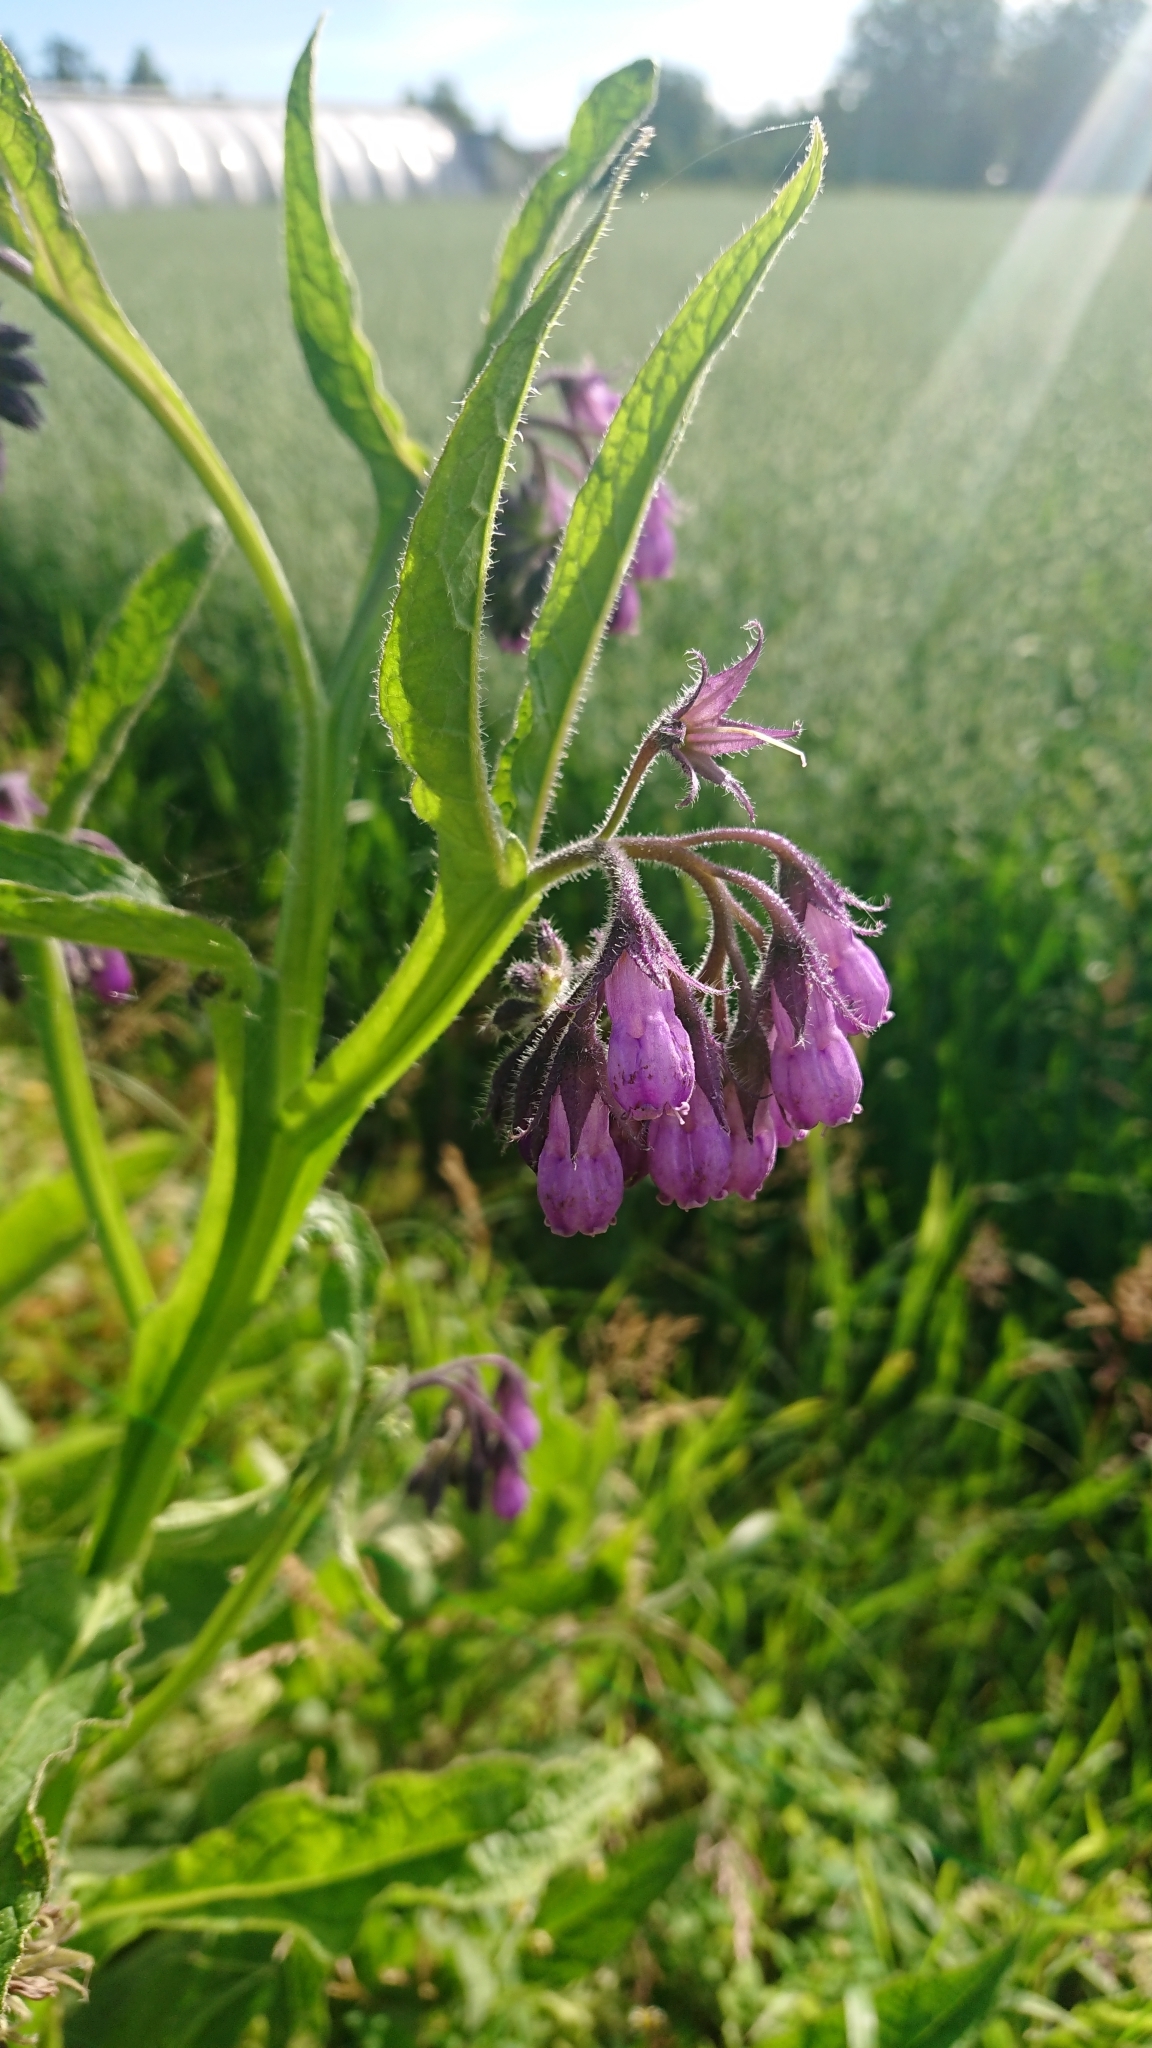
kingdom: Plantae
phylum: Tracheophyta
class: Magnoliopsida
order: Boraginales
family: Boraginaceae
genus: Symphytum
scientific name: Symphytum officinale
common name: Common comfrey
